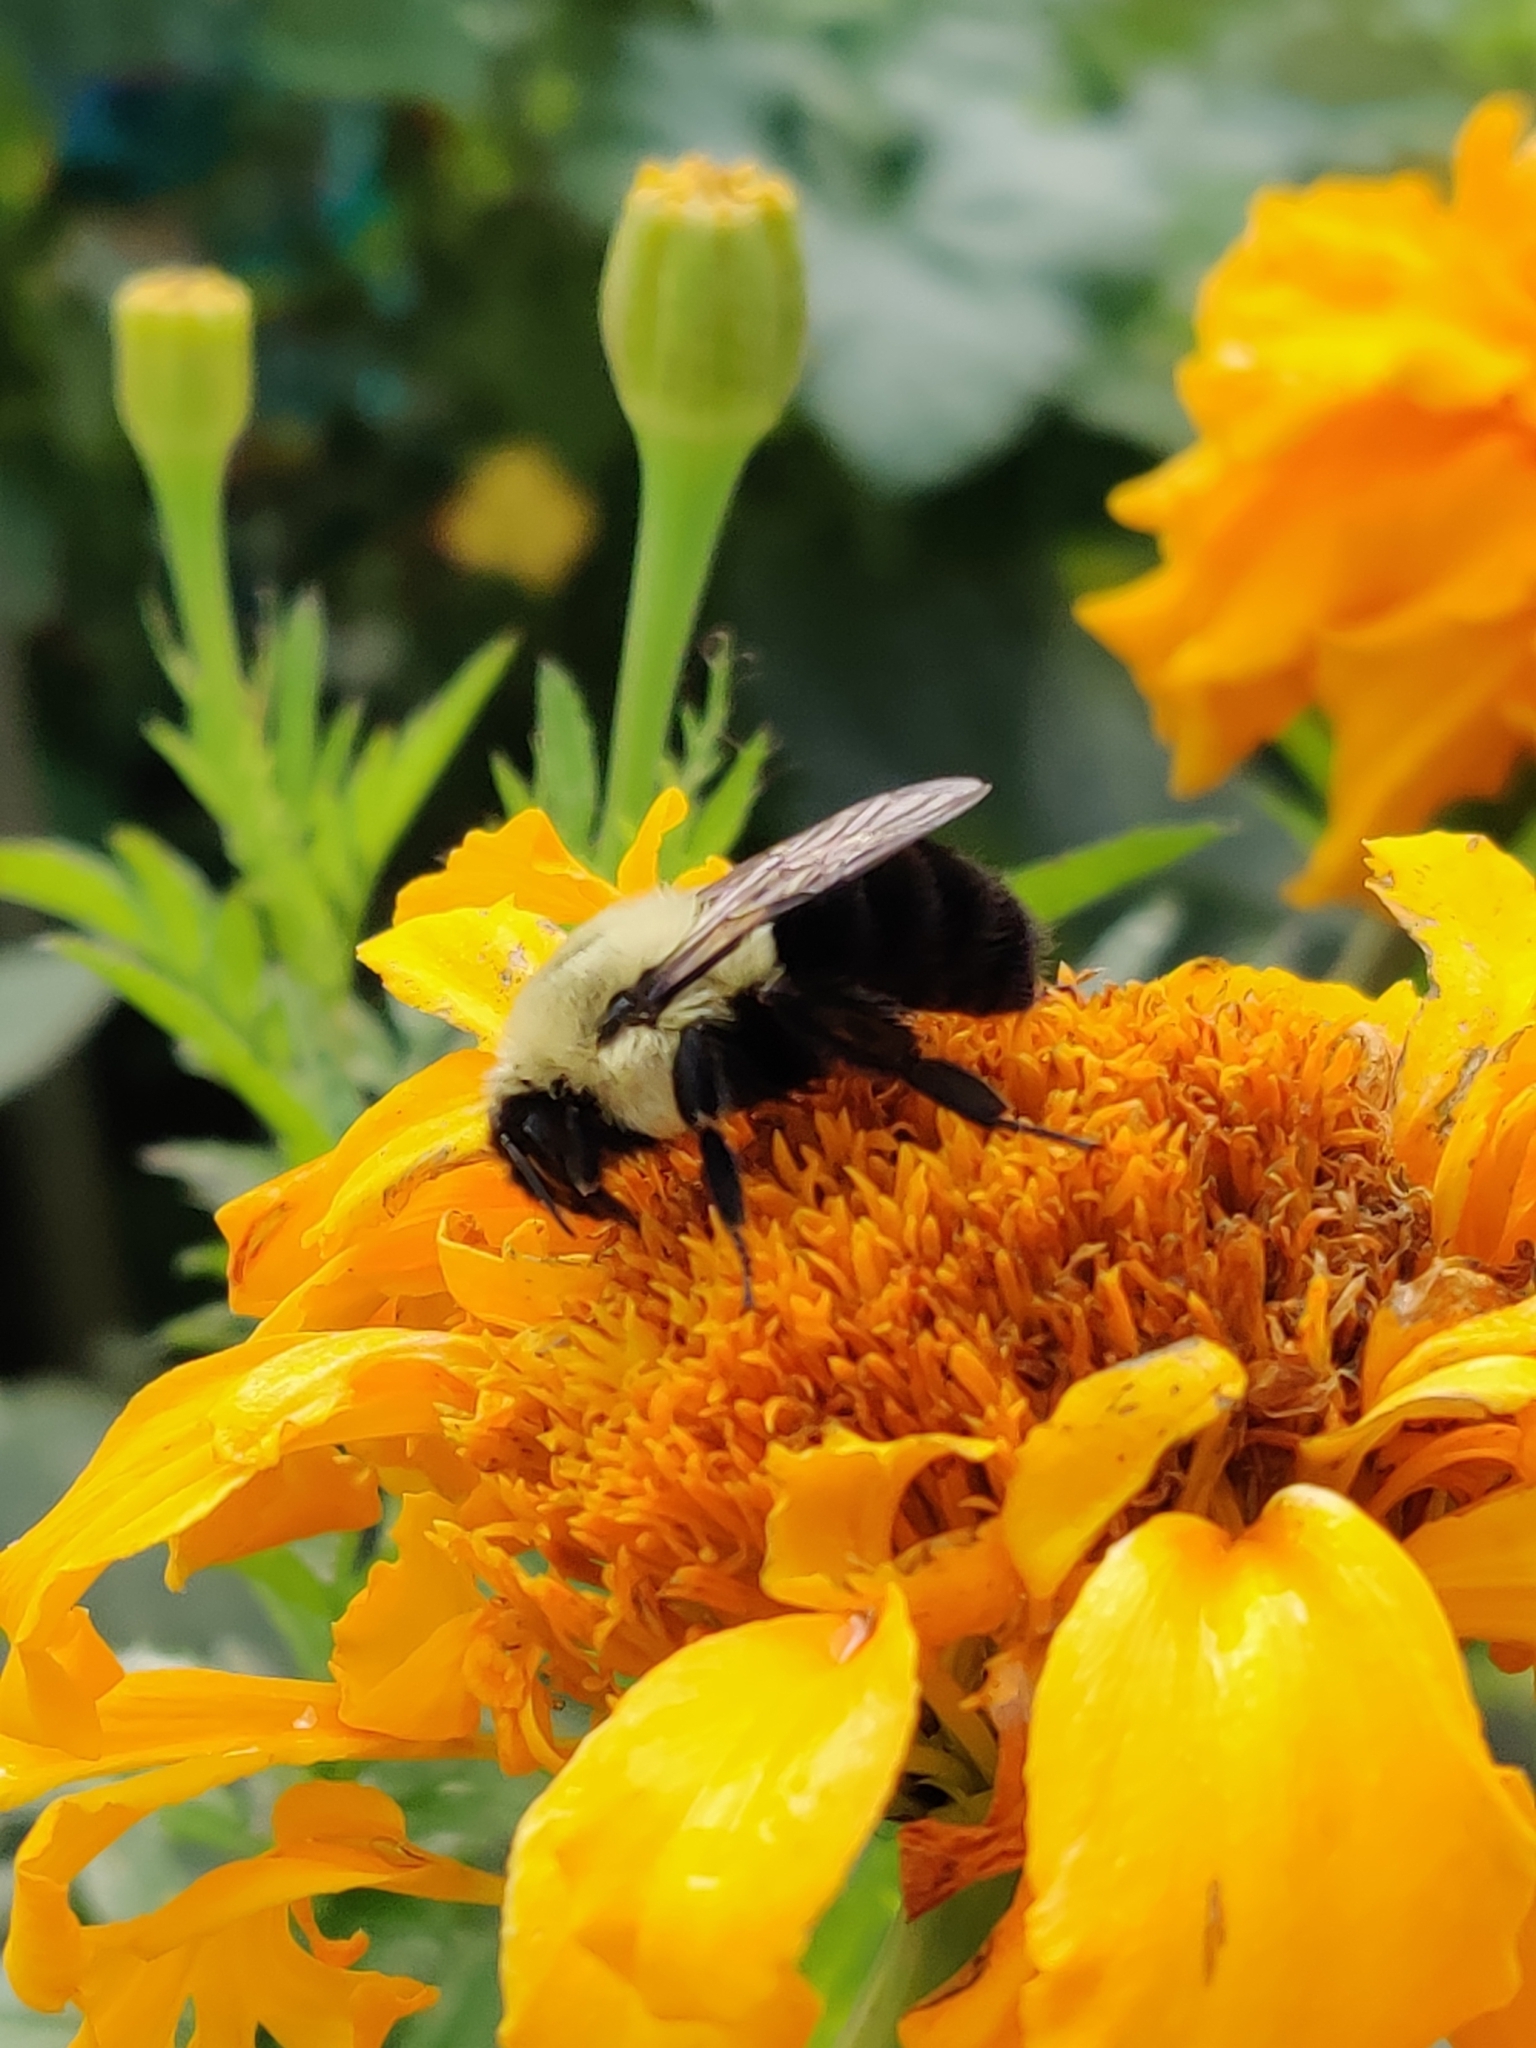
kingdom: Animalia
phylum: Arthropoda
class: Insecta
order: Hymenoptera
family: Apidae
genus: Bombus
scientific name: Bombus impatiens
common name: Common eastern bumble bee
